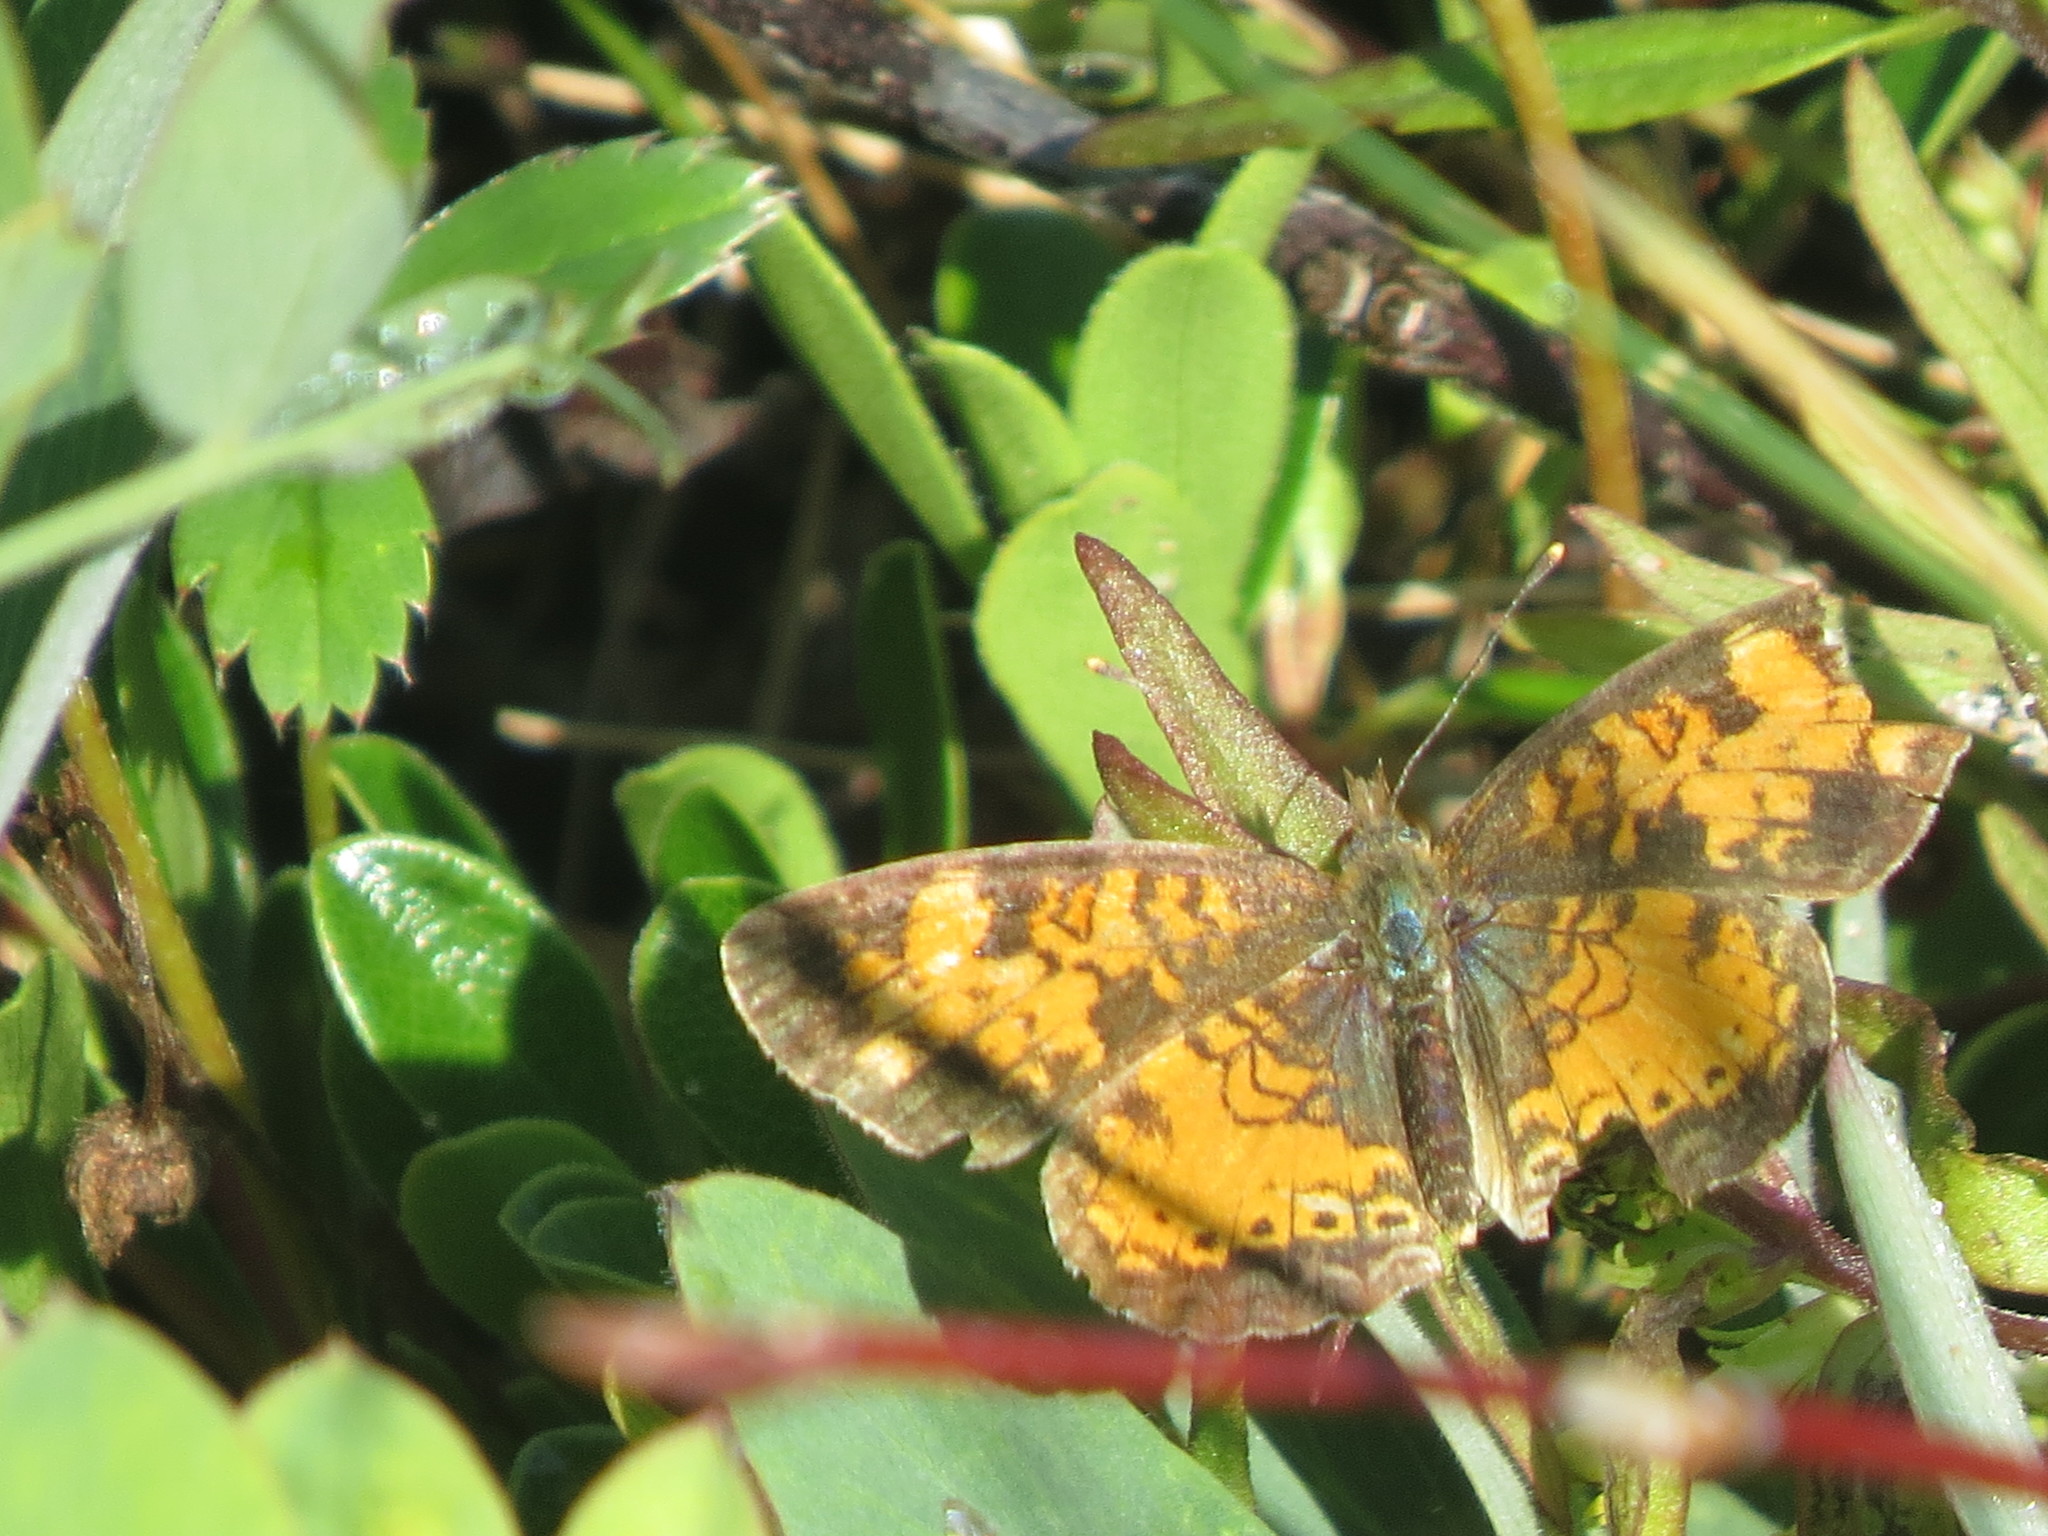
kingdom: Animalia
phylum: Arthropoda
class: Insecta
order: Lepidoptera
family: Nymphalidae
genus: Phyciodes
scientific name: Phyciodes tharos
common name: Pearl crescent
